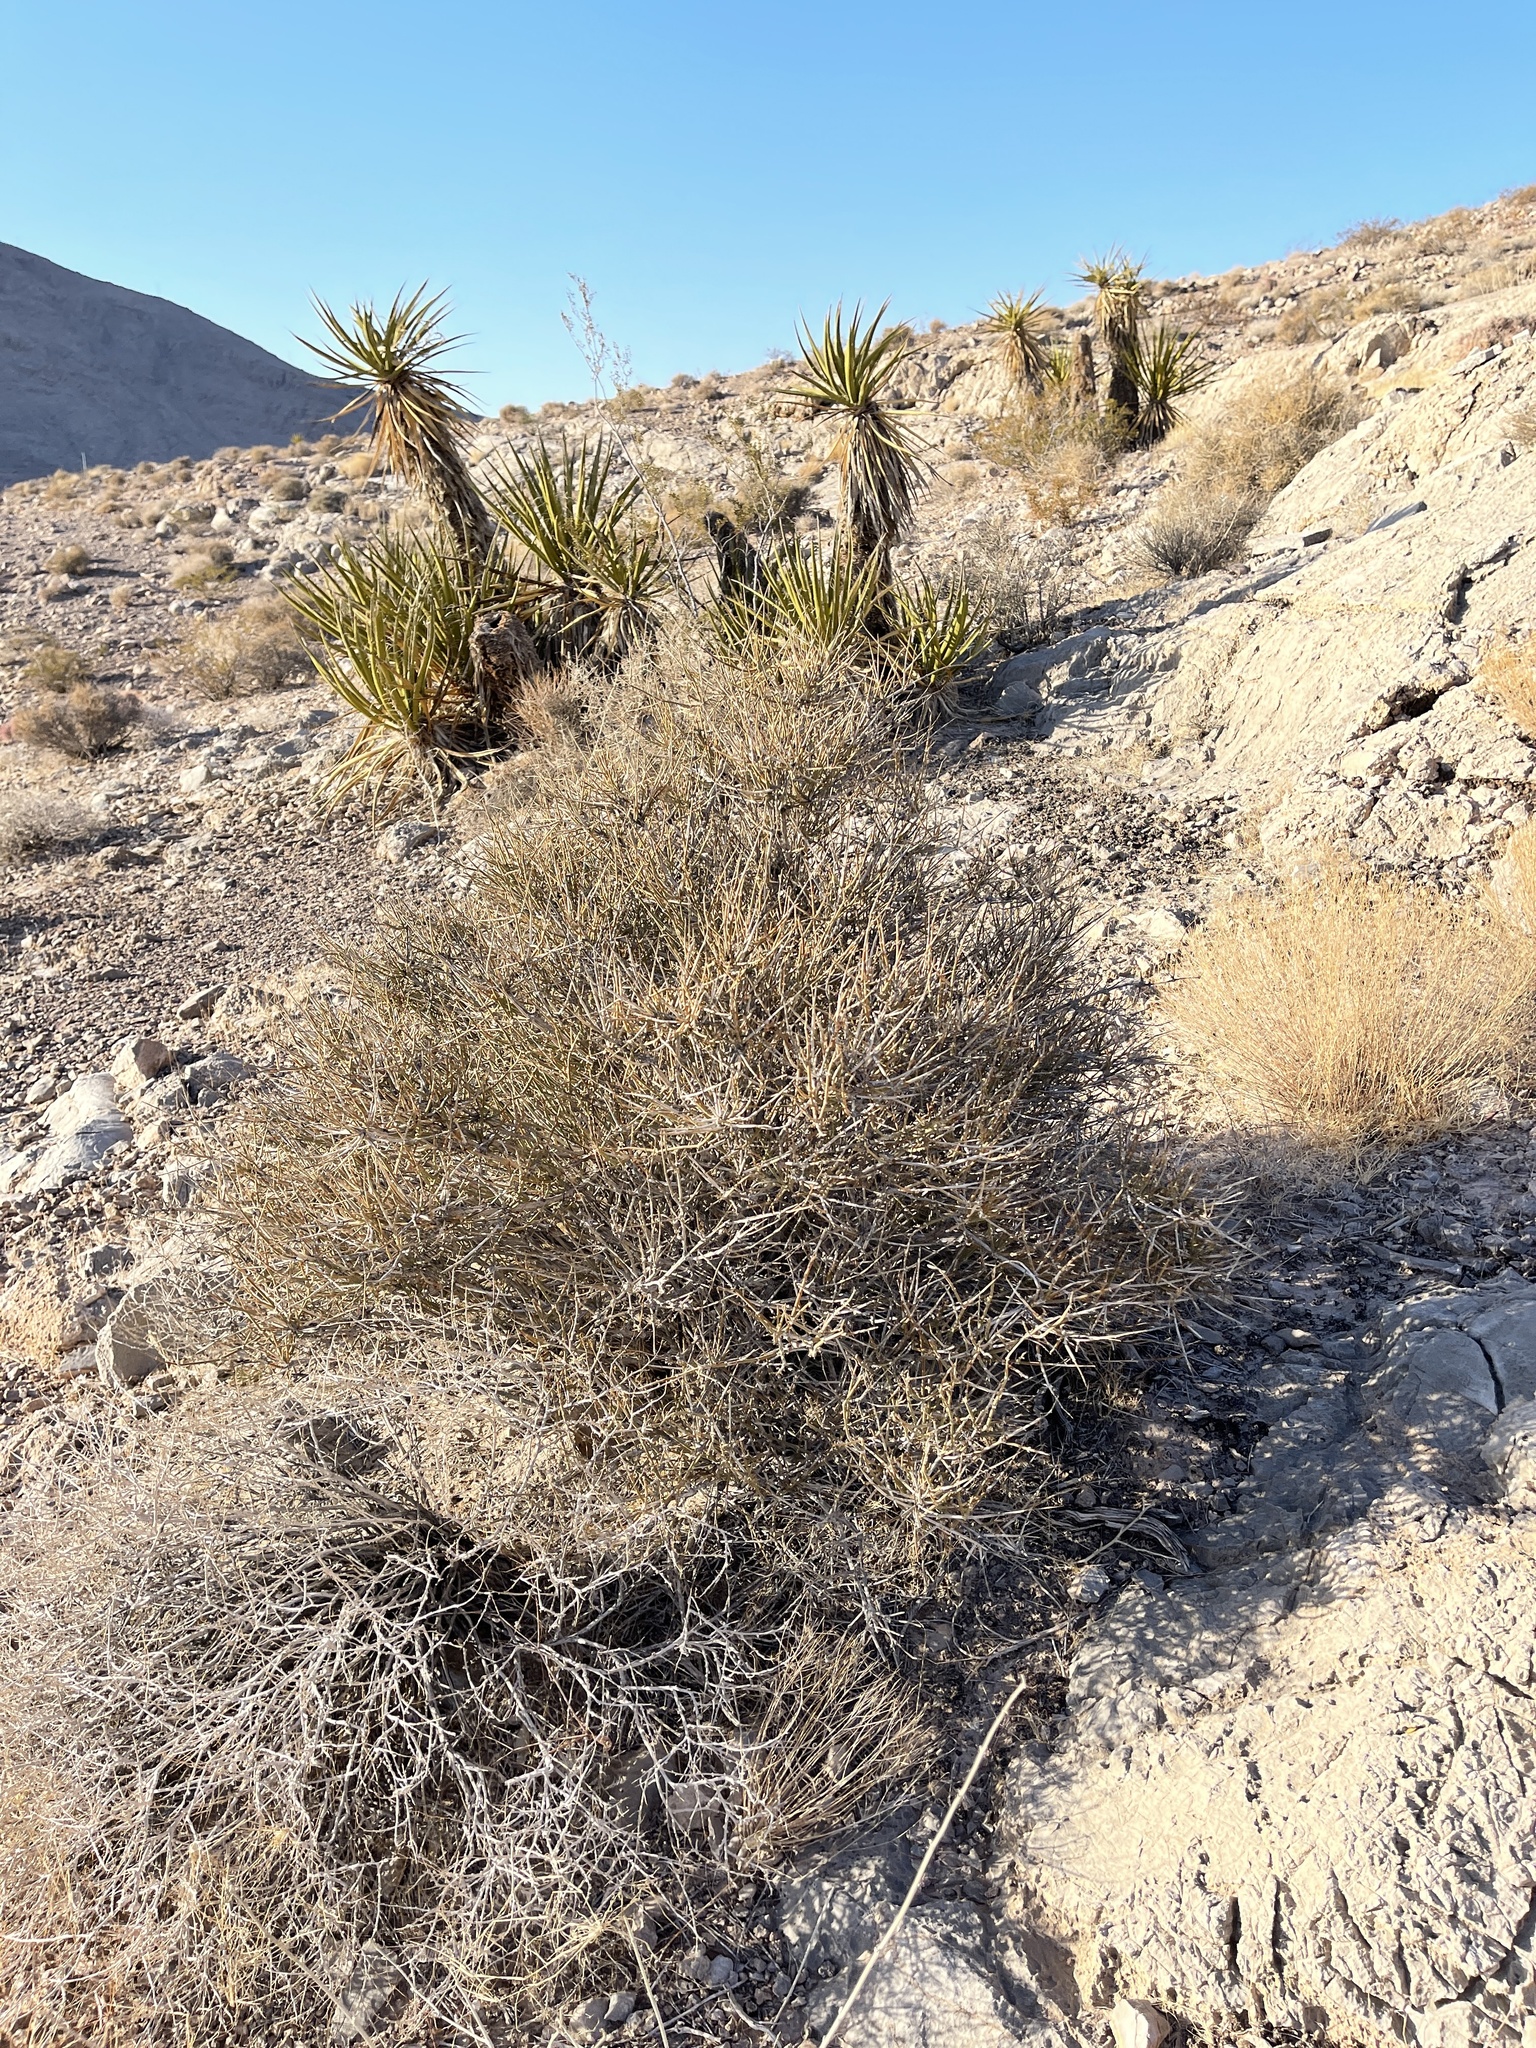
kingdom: Plantae
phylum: Tracheophyta
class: Gnetopsida
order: Ephedrales
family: Ephedraceae
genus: Ephedra
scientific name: Ephedra nevadensis
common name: Gray ephedra
